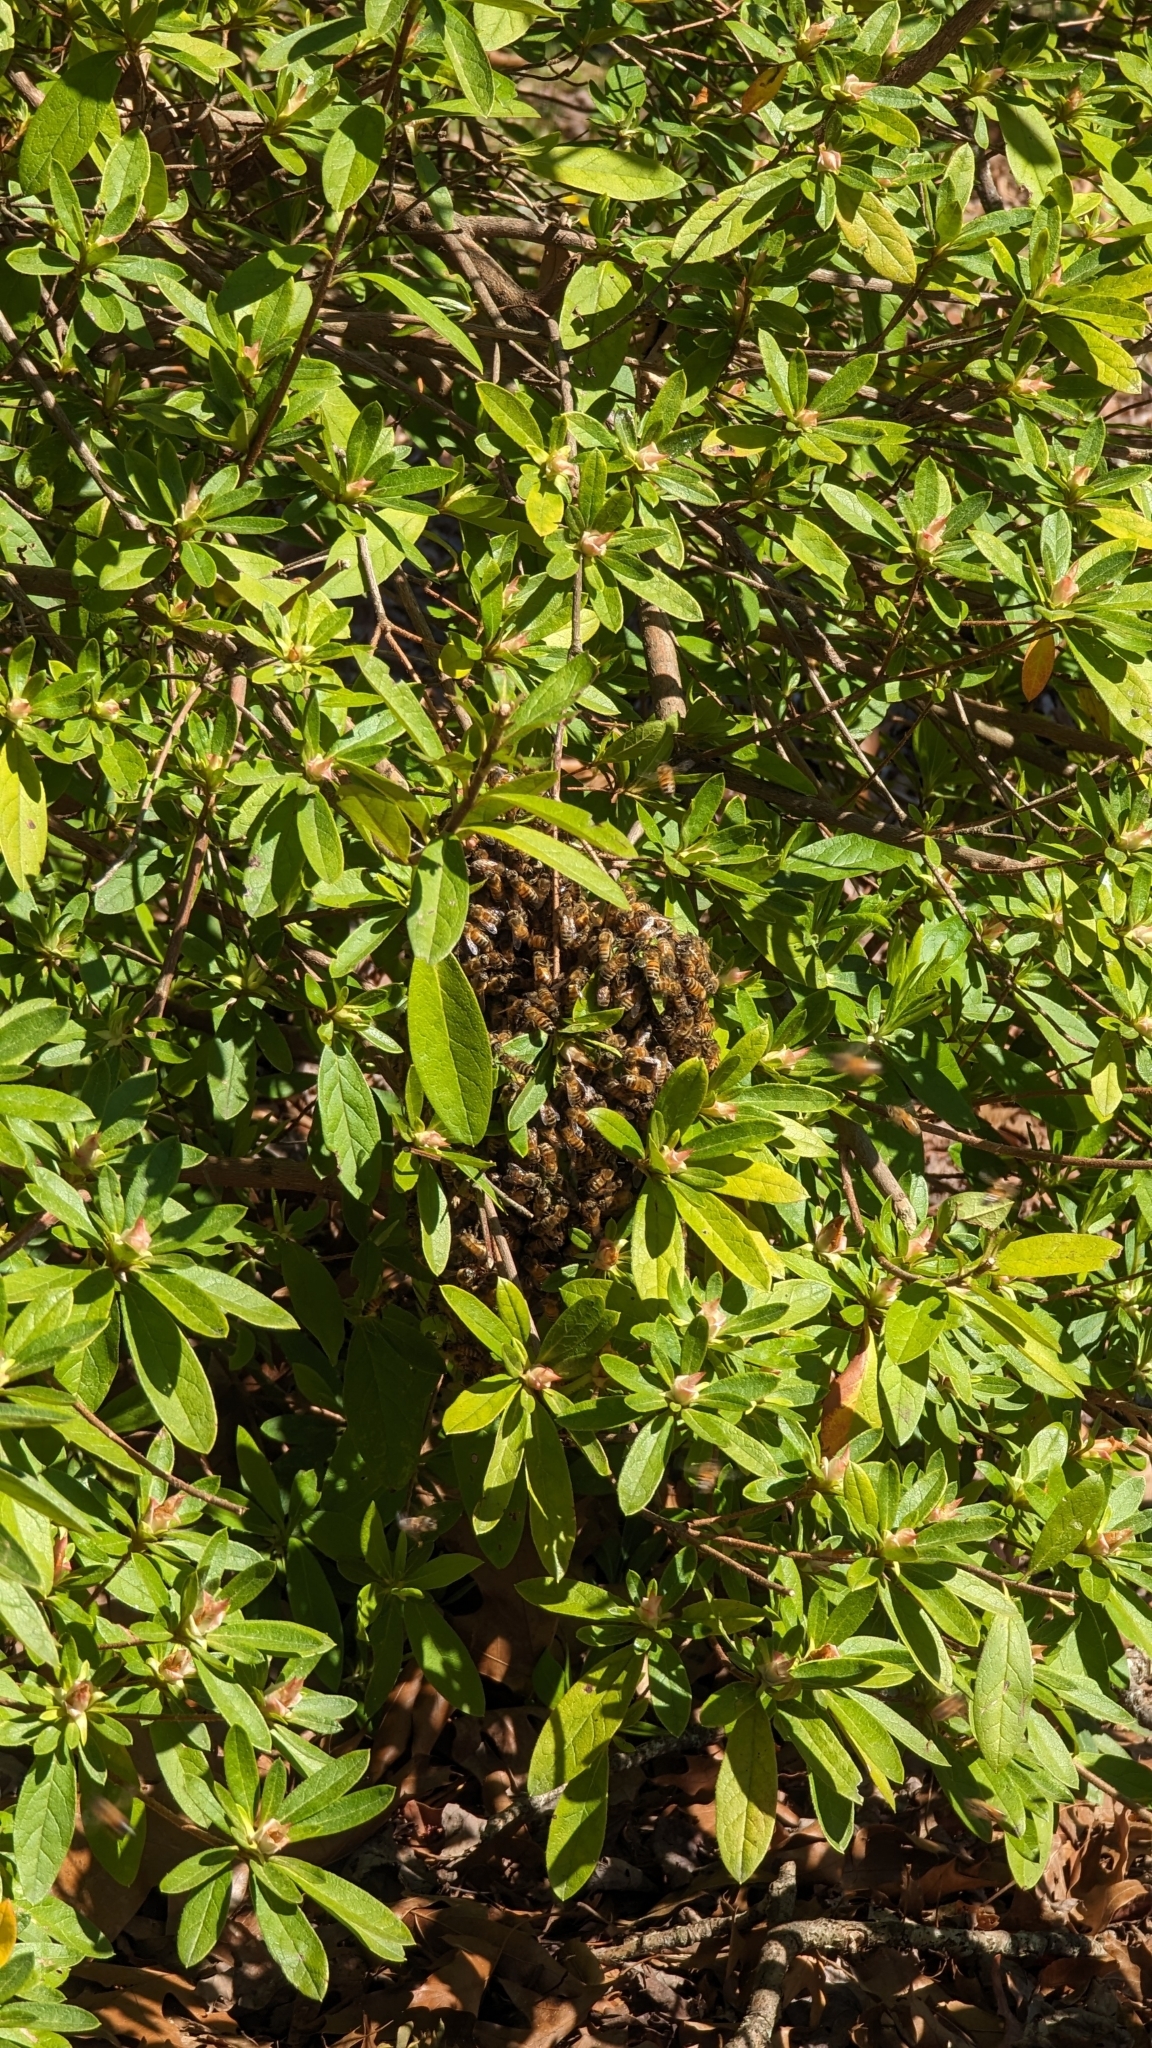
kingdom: Animalia
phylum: Arthropoda
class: Insecta
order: Hymenoptera
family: Apidae
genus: Apis
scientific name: Apis mellifera
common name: Honey bee
